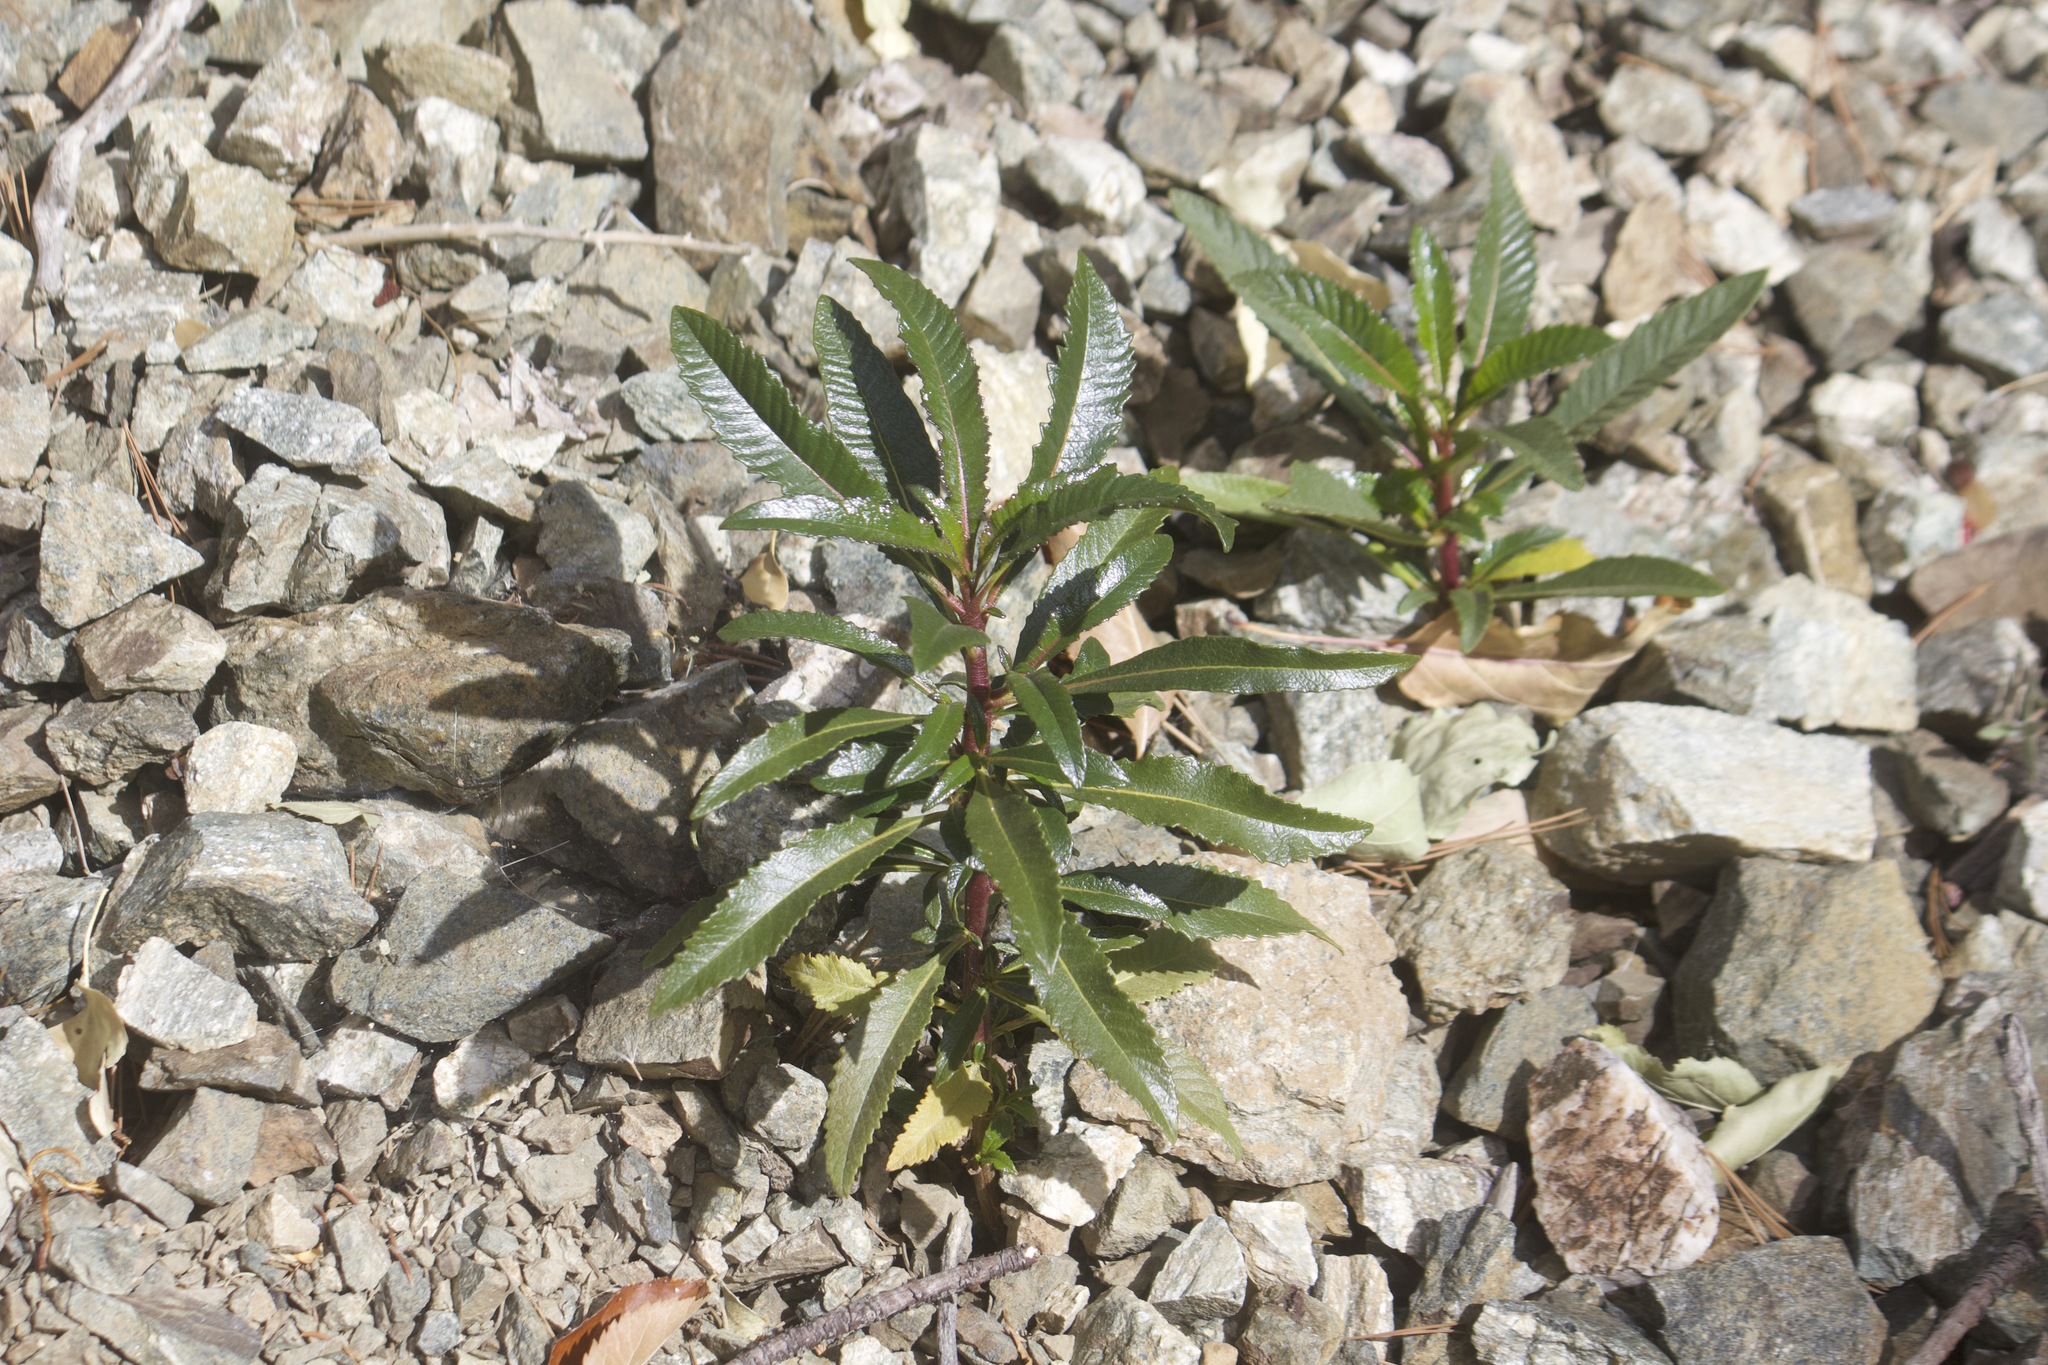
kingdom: Plantae
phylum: Tracheophyta
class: Magnoliopsida
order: Boraginales
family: Namaceae
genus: Eriodictyon
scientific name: Eriodictyon trichocalyx
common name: Hairy yerba-santa
